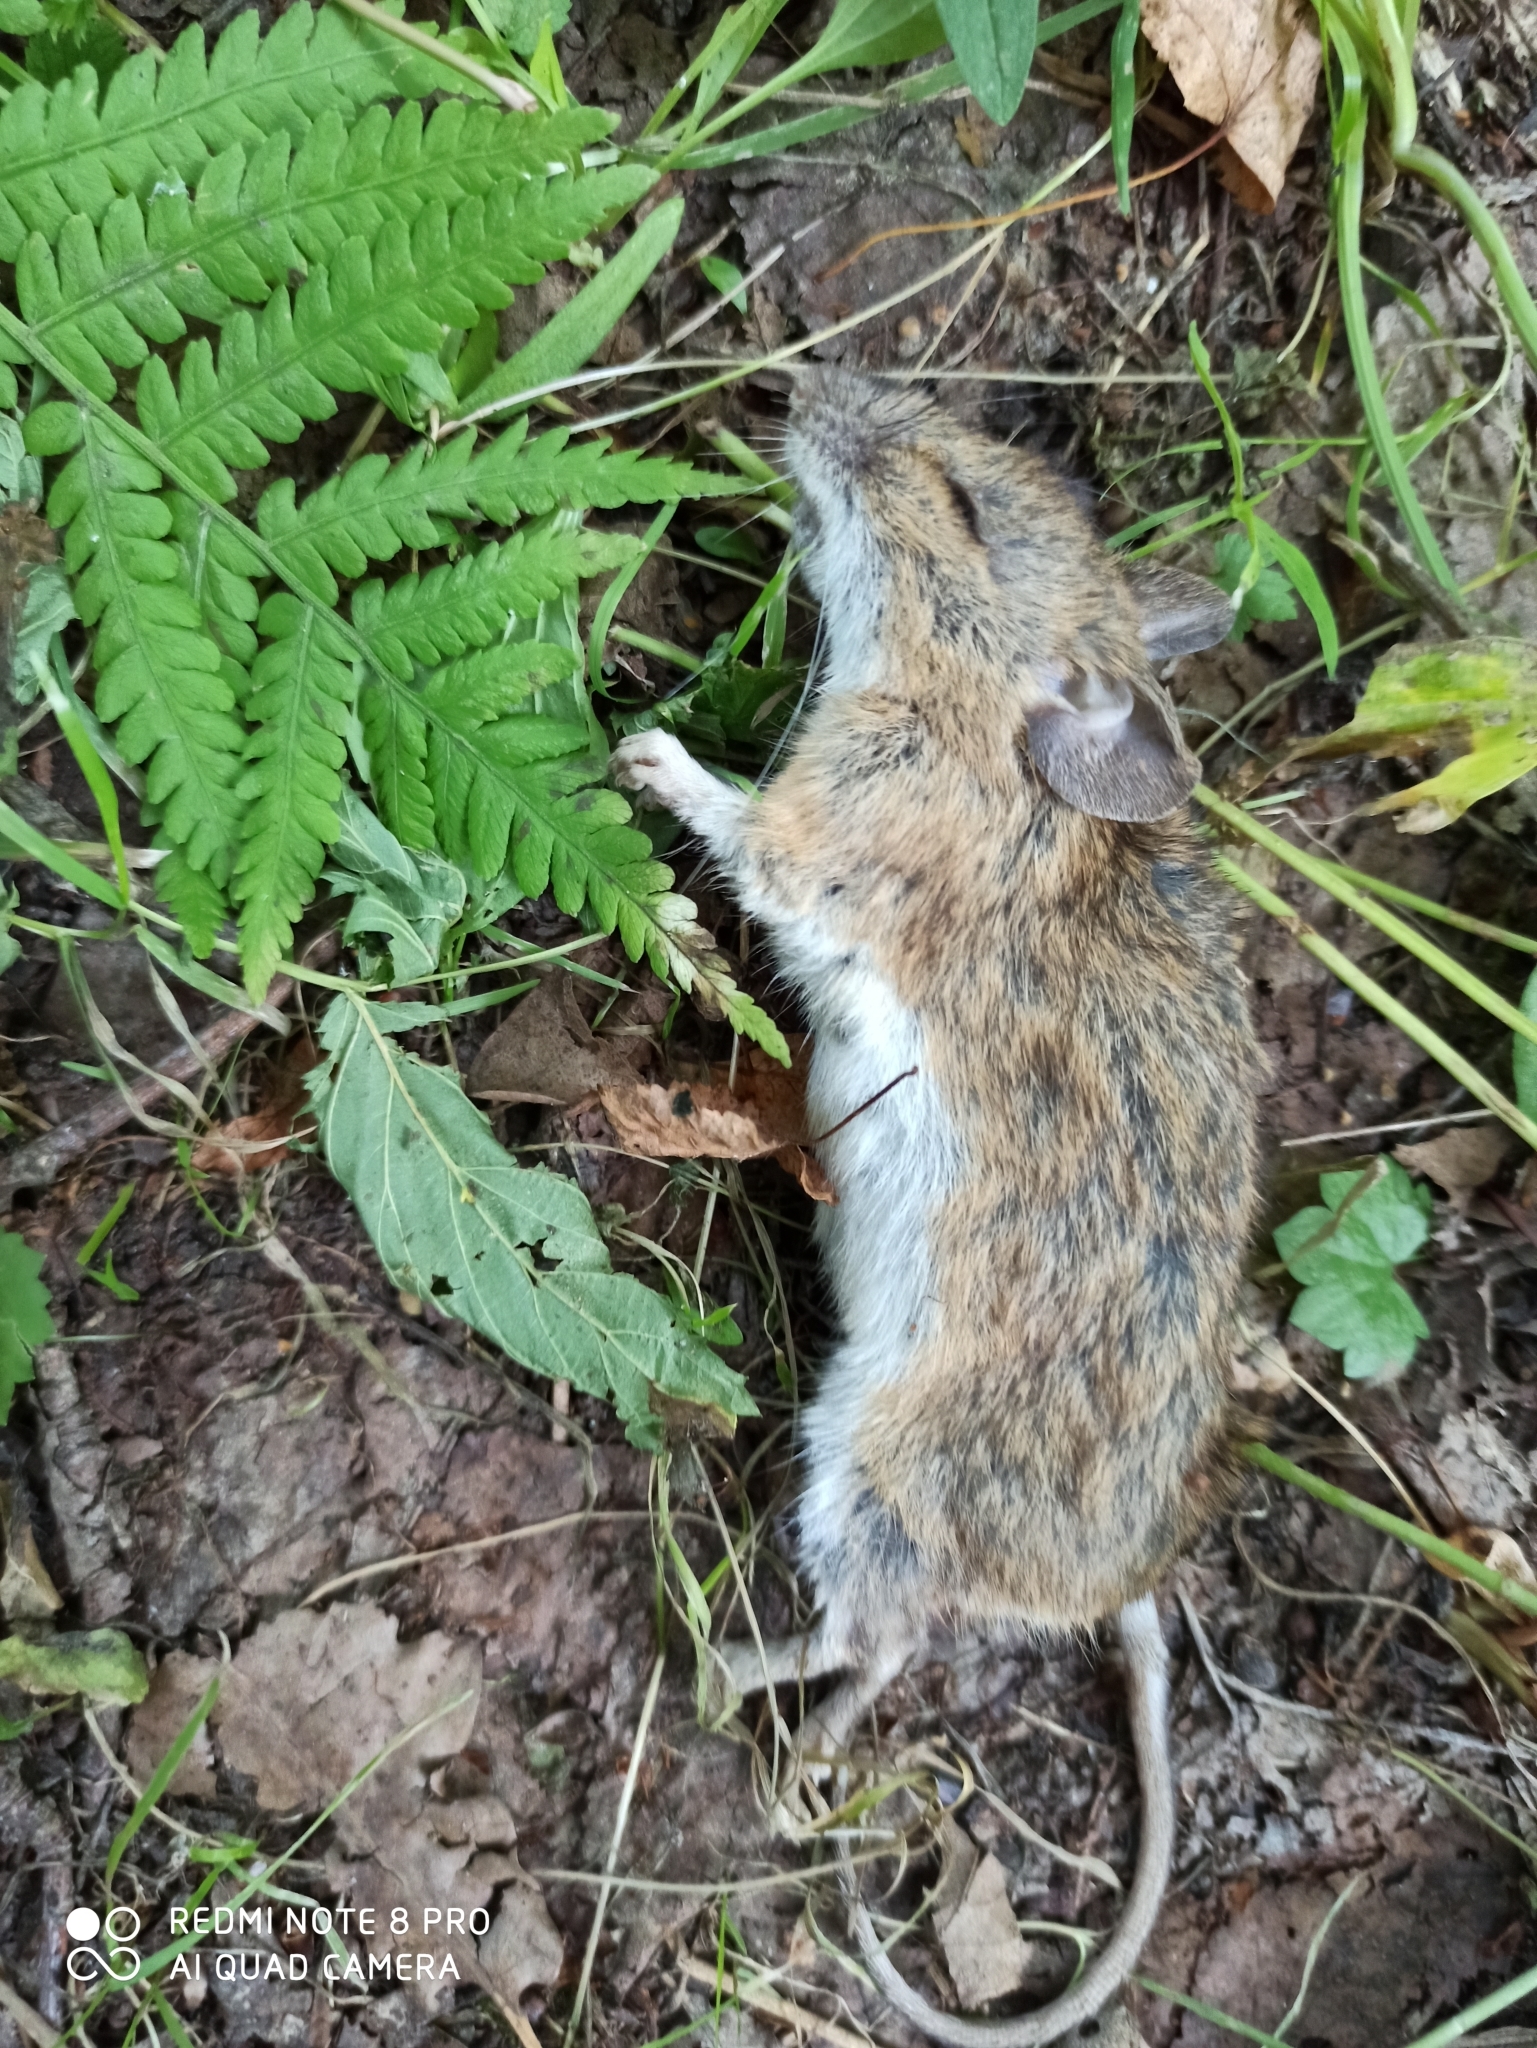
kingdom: Animalia
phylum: Chordata
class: Mammalia
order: Rodentia
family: Muridae
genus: Apodemus
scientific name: Apodemus uralensis
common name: Herb field mouse
